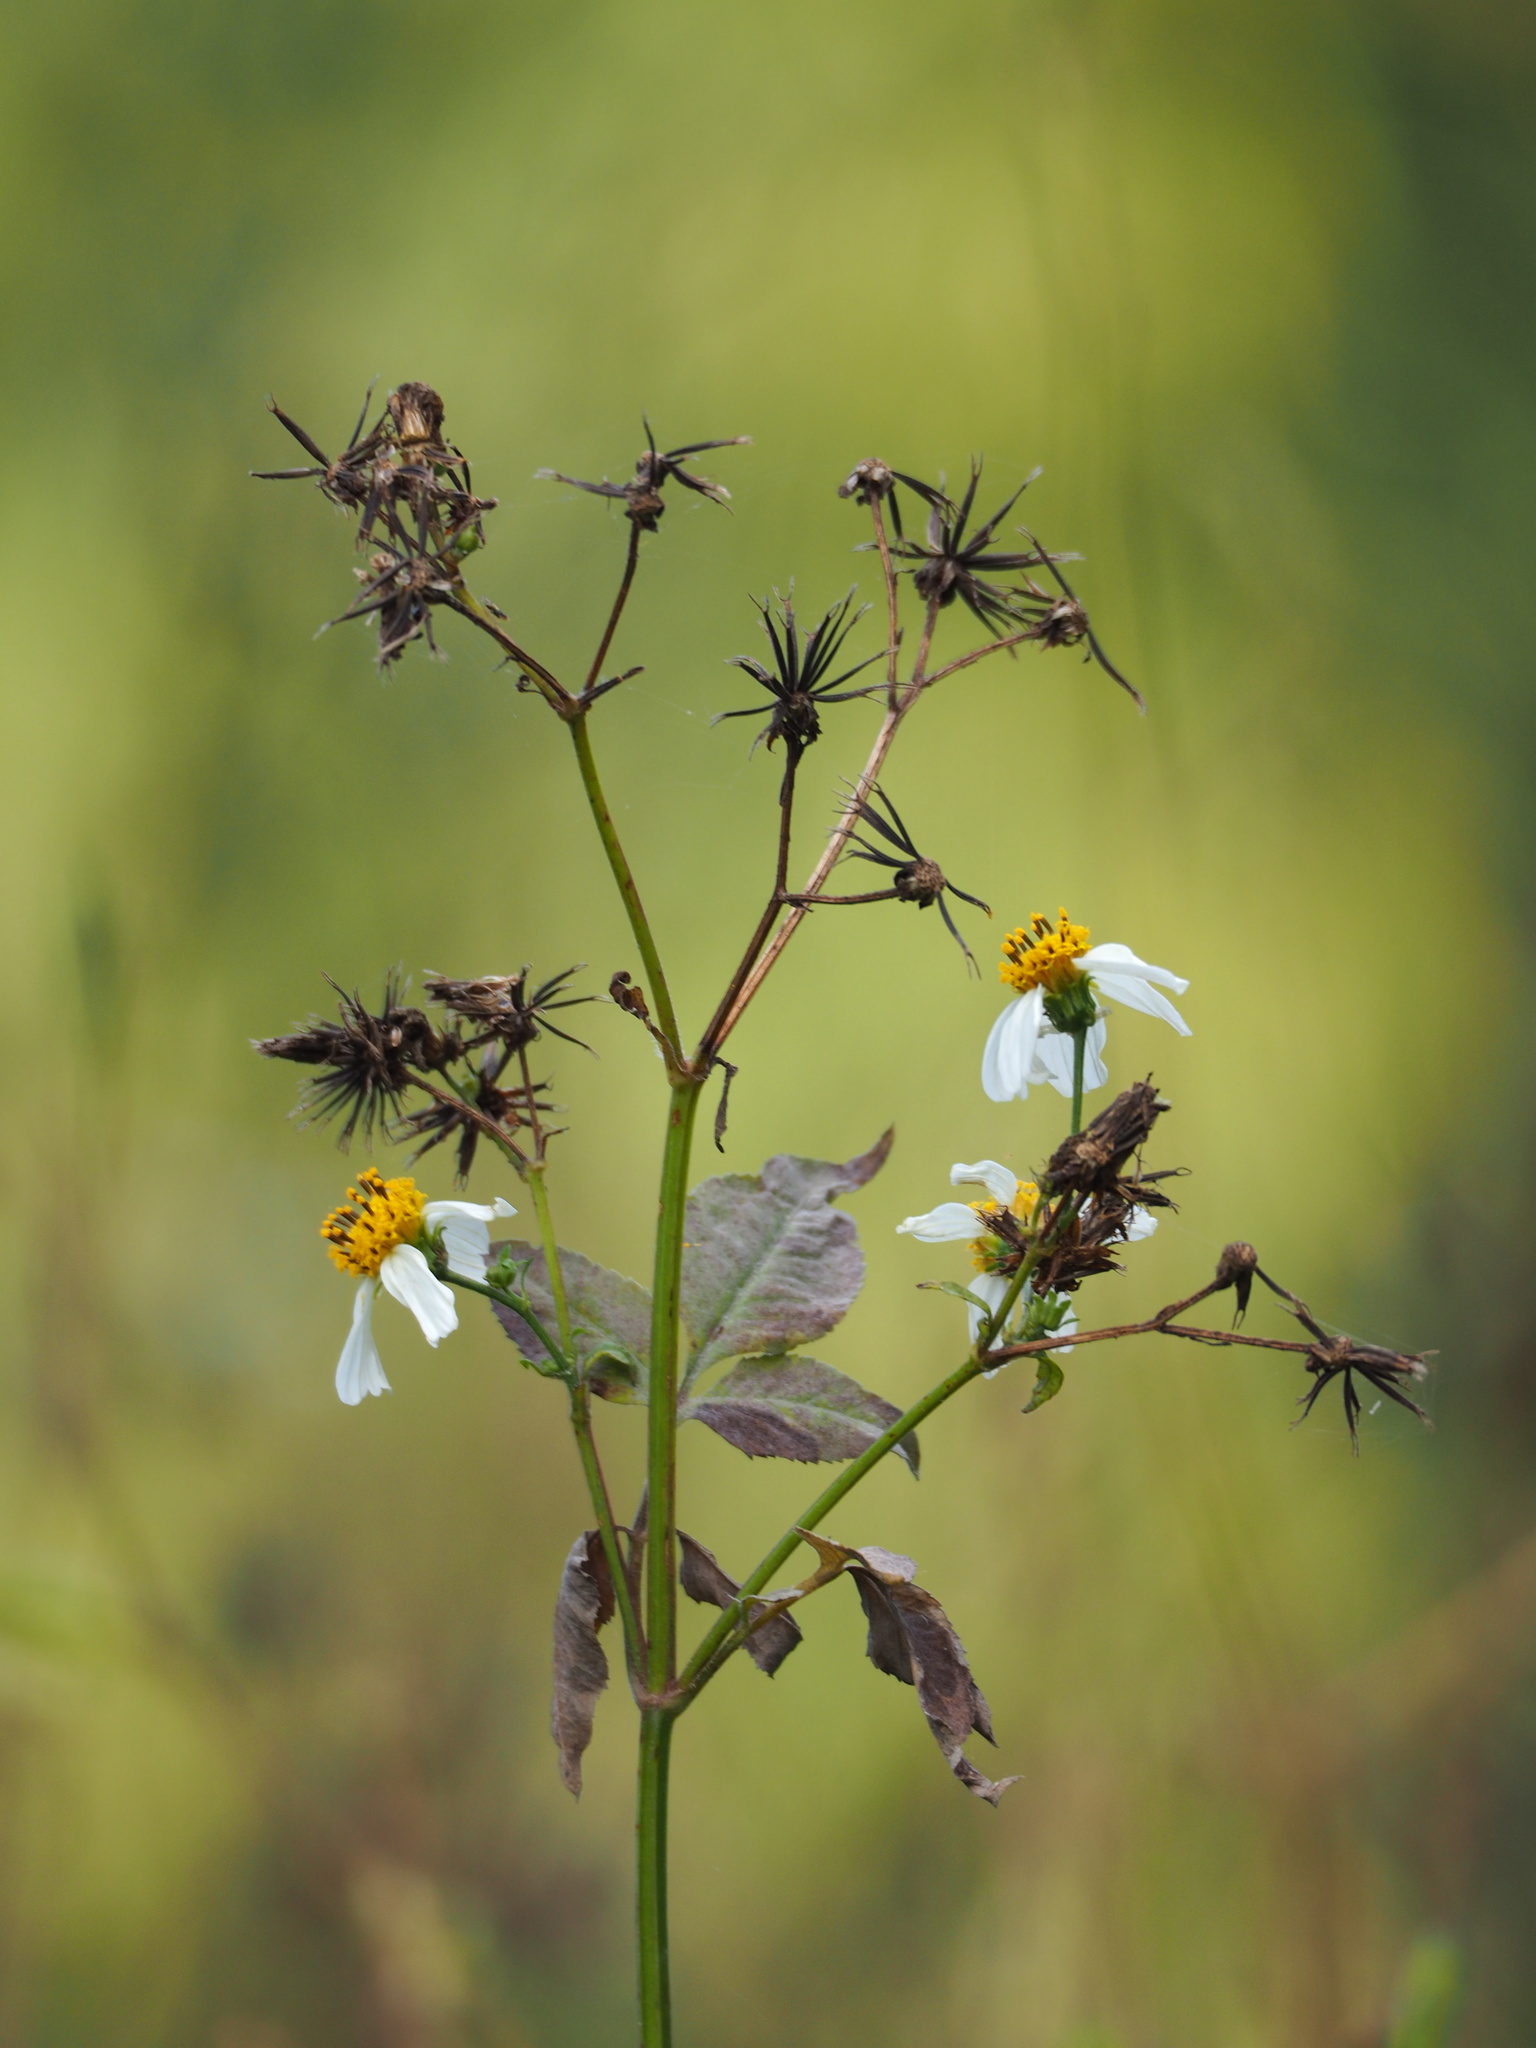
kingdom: Plantae
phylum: Tracheophyta
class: Magnoliopsida
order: Asterales
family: Asteraceae
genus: Bidens
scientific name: Bidens alba
